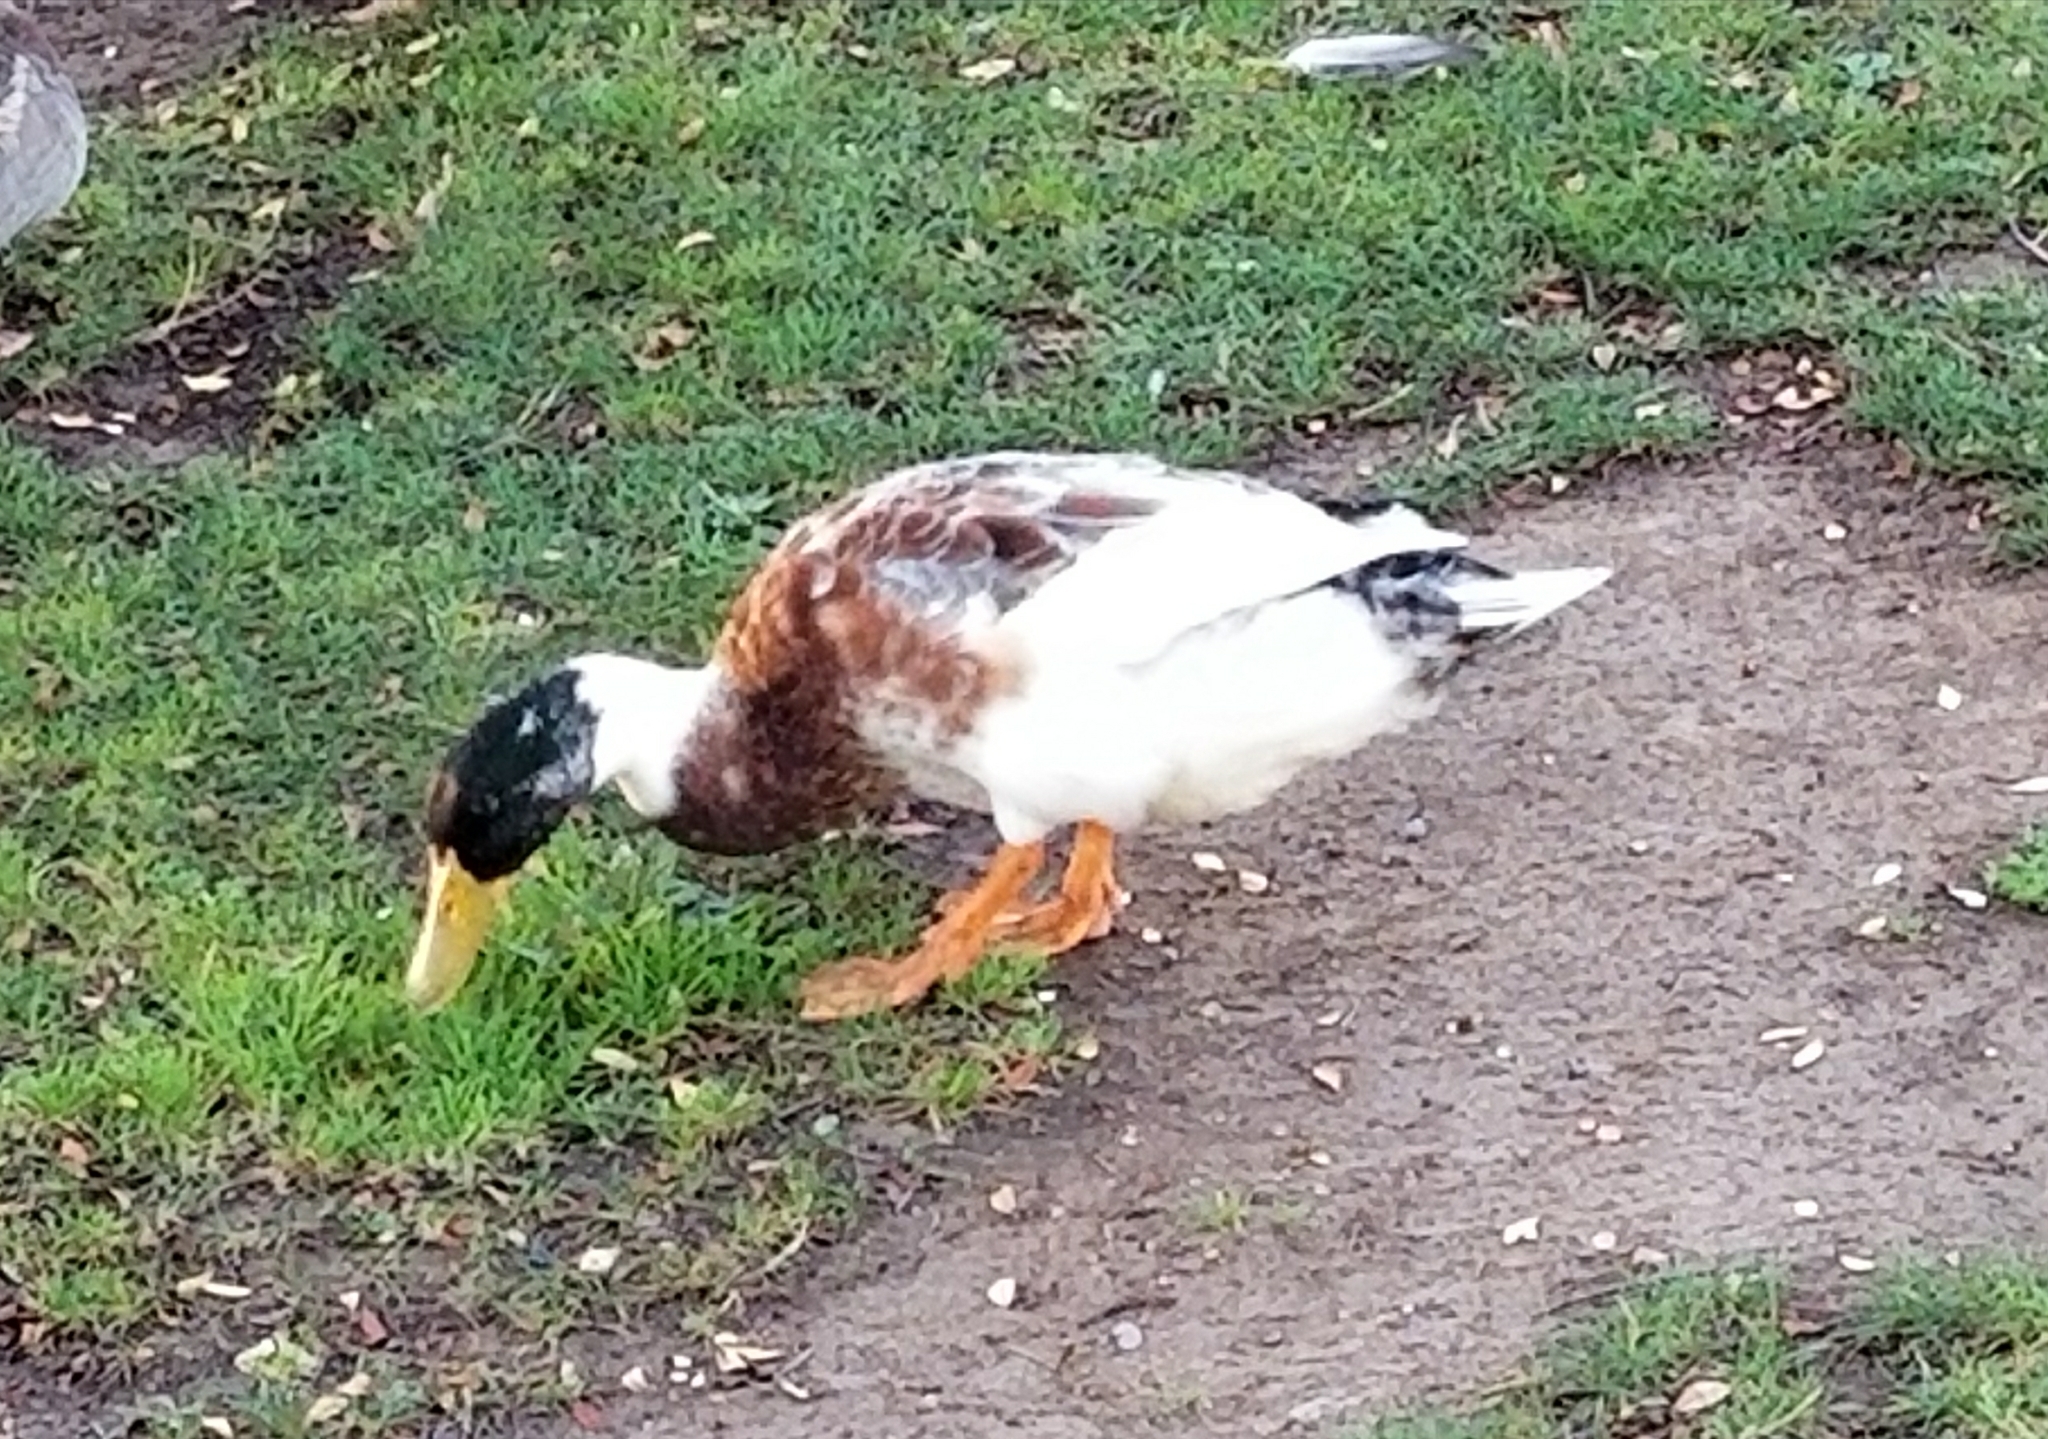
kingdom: Animalia
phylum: Chordata
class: Aves
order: Anseriformes
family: Anatidae
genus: Anas
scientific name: Anas platyrhynchos
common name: Mallard
